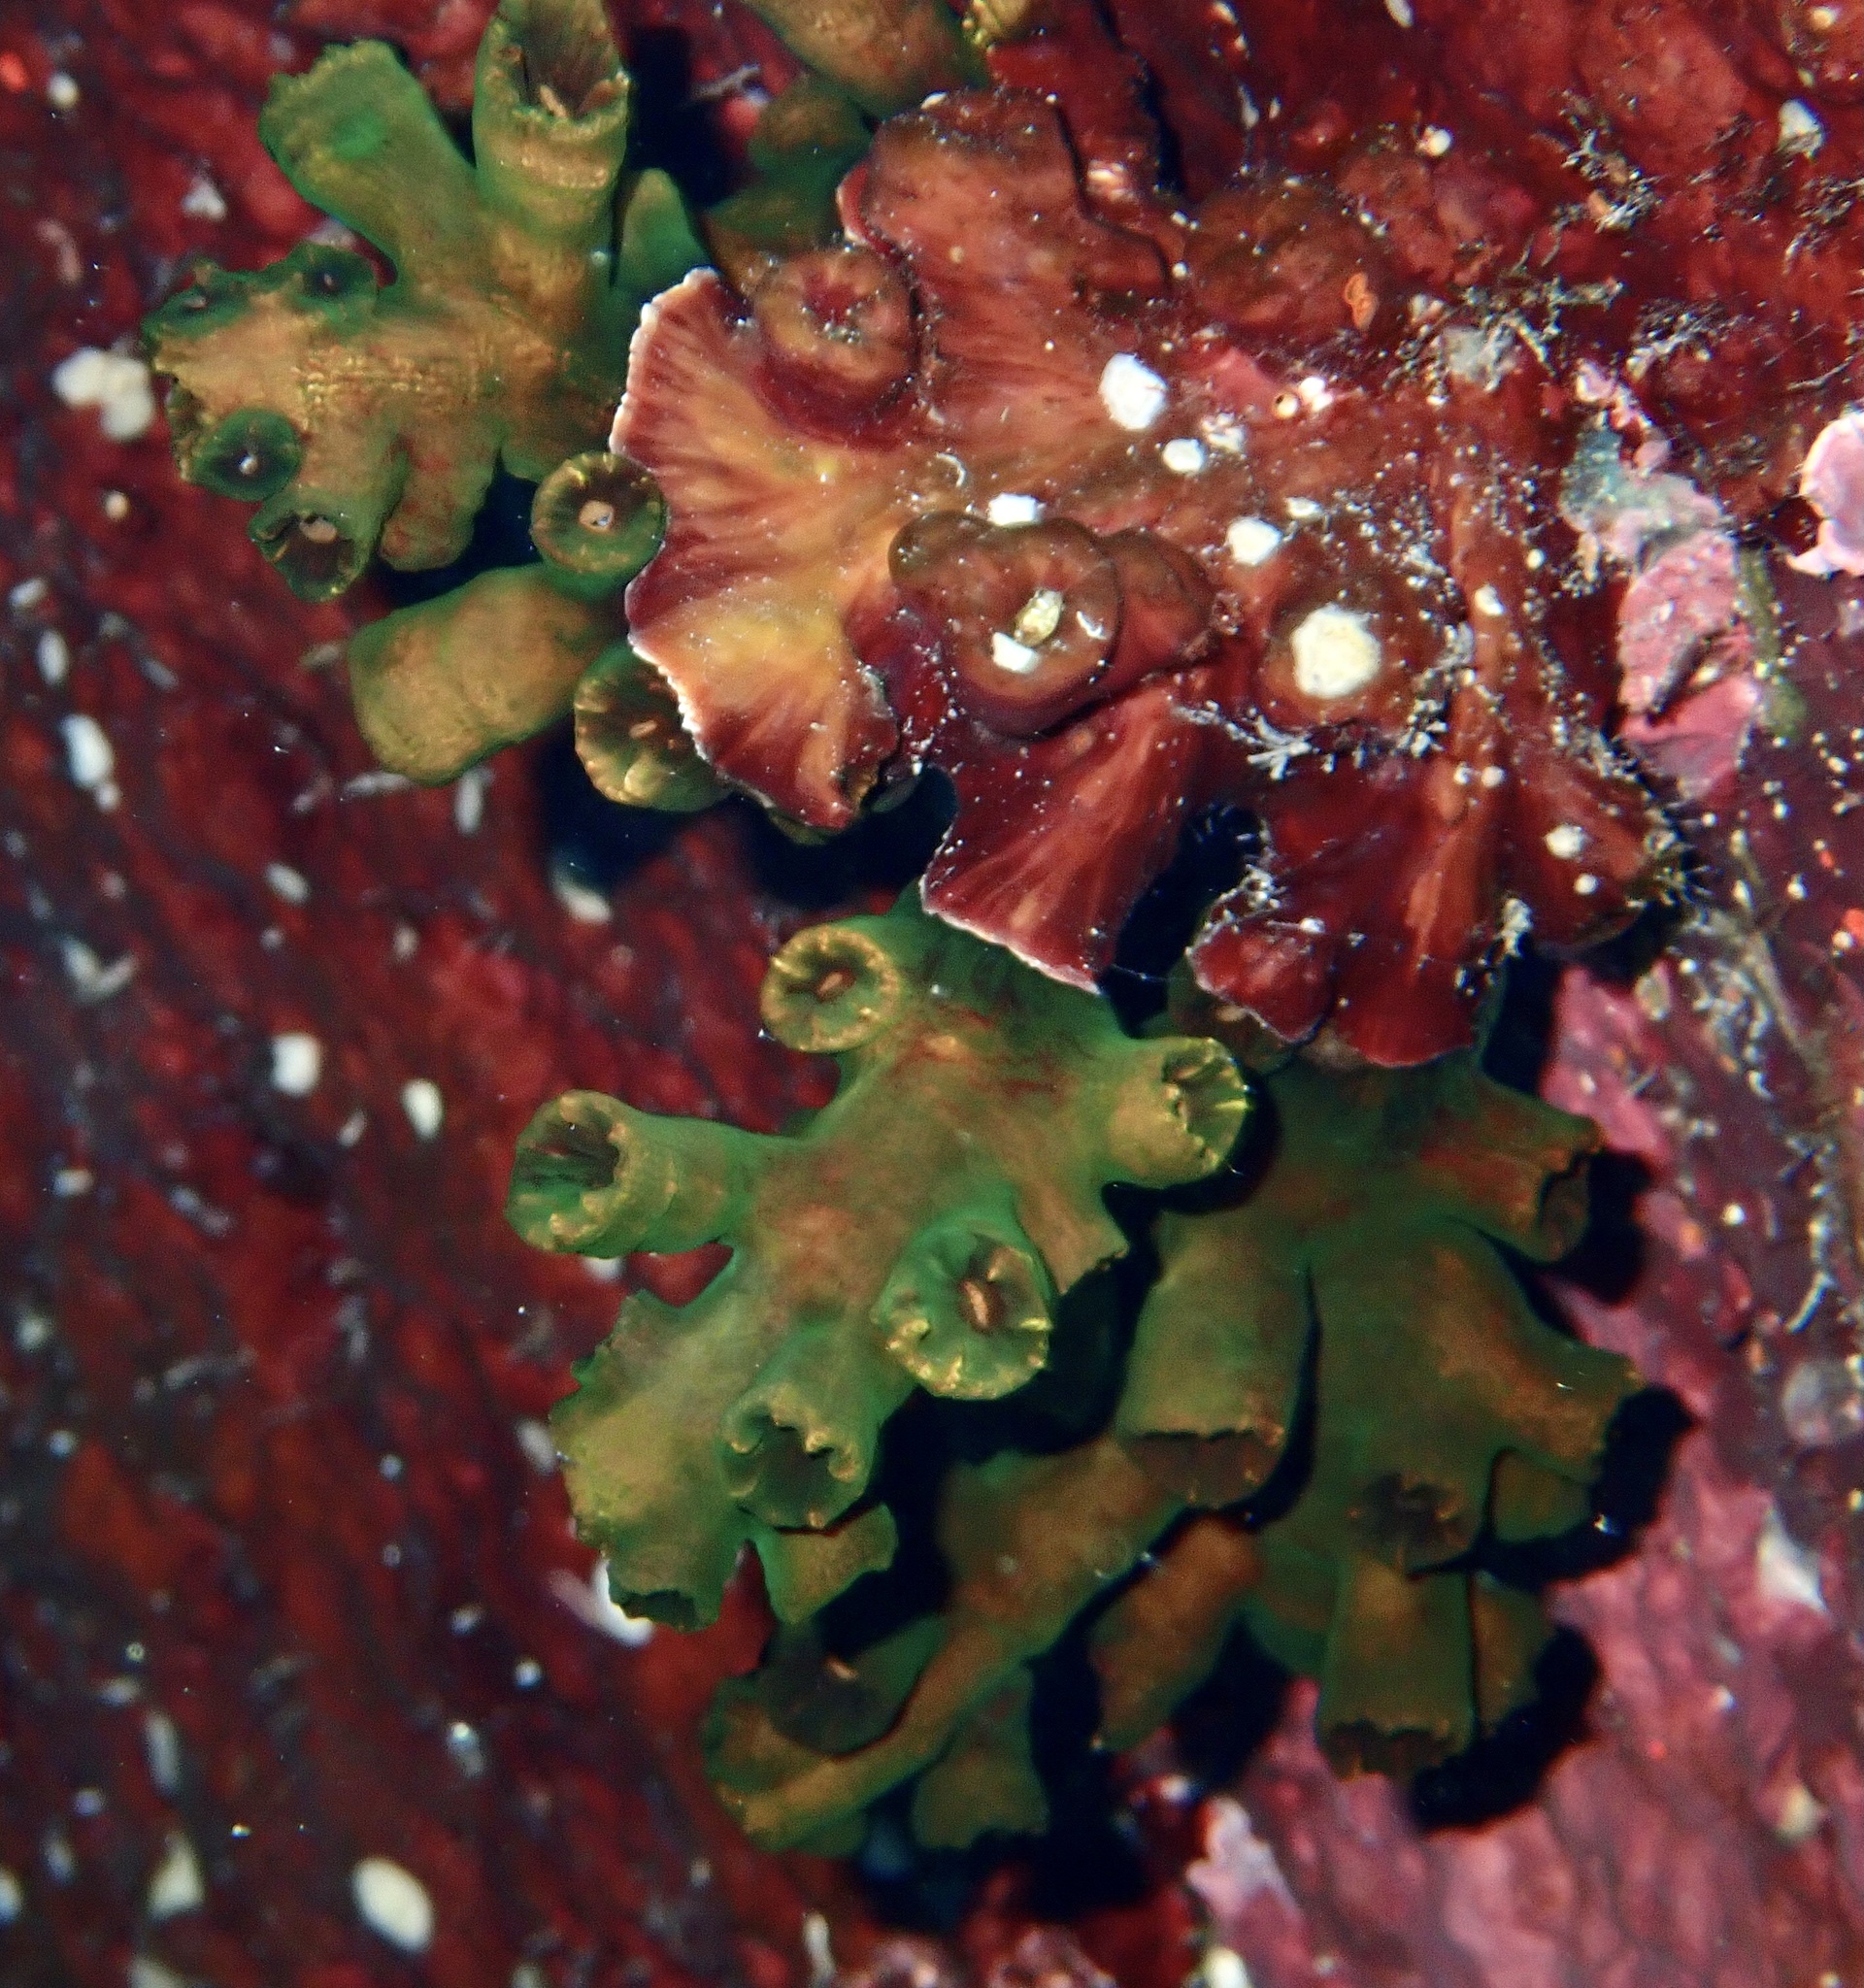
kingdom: Animalia
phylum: Cnidaria
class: Anthozoa
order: Scleractinia
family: Dendrophylliidae
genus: Tubastraea
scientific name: Tubastraea micranthus
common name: Black sun coral
